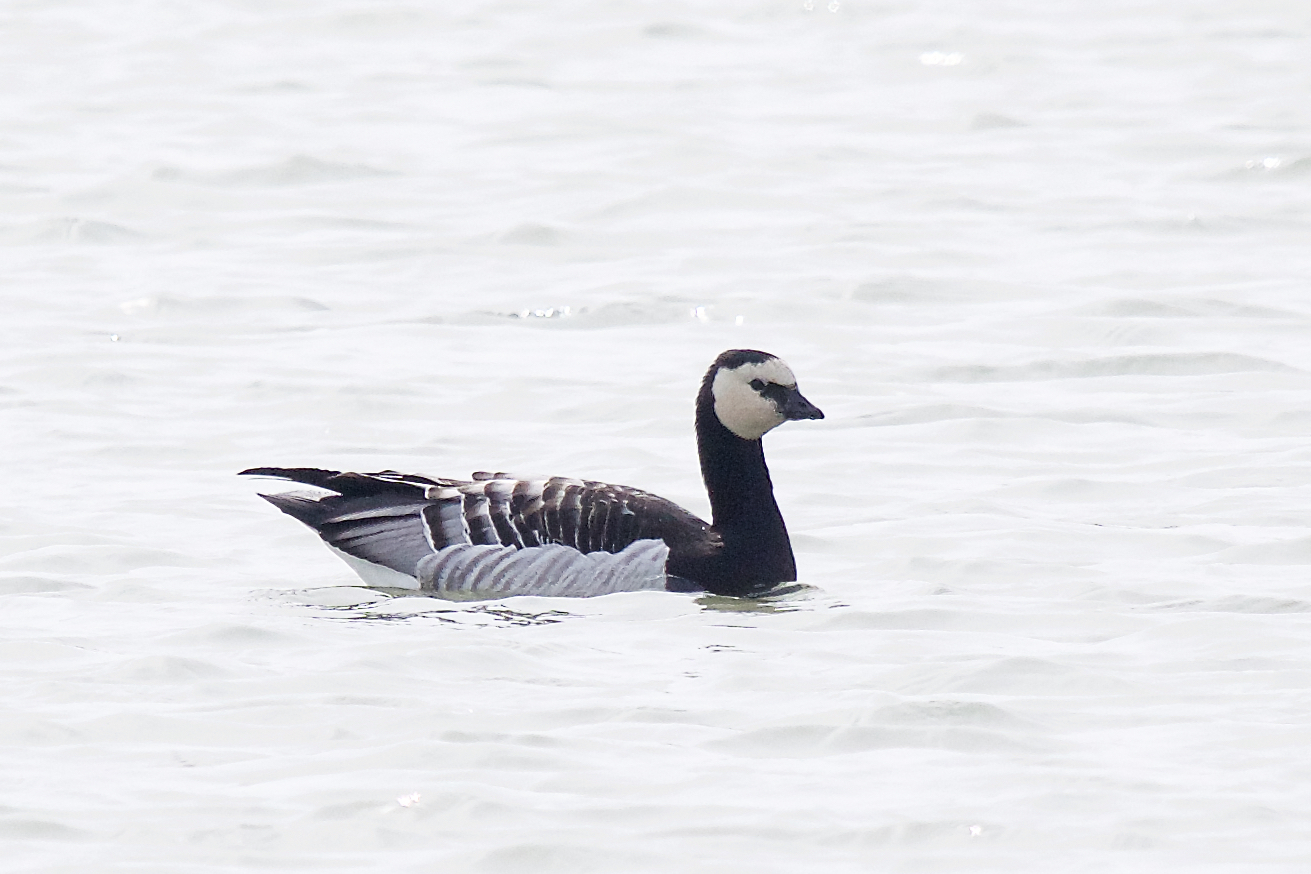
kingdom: Animalia
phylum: Chordata
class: Aves
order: Anseriformes
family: Anatidae
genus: Branta
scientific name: Branta leucopsis
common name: Barnacle goose
